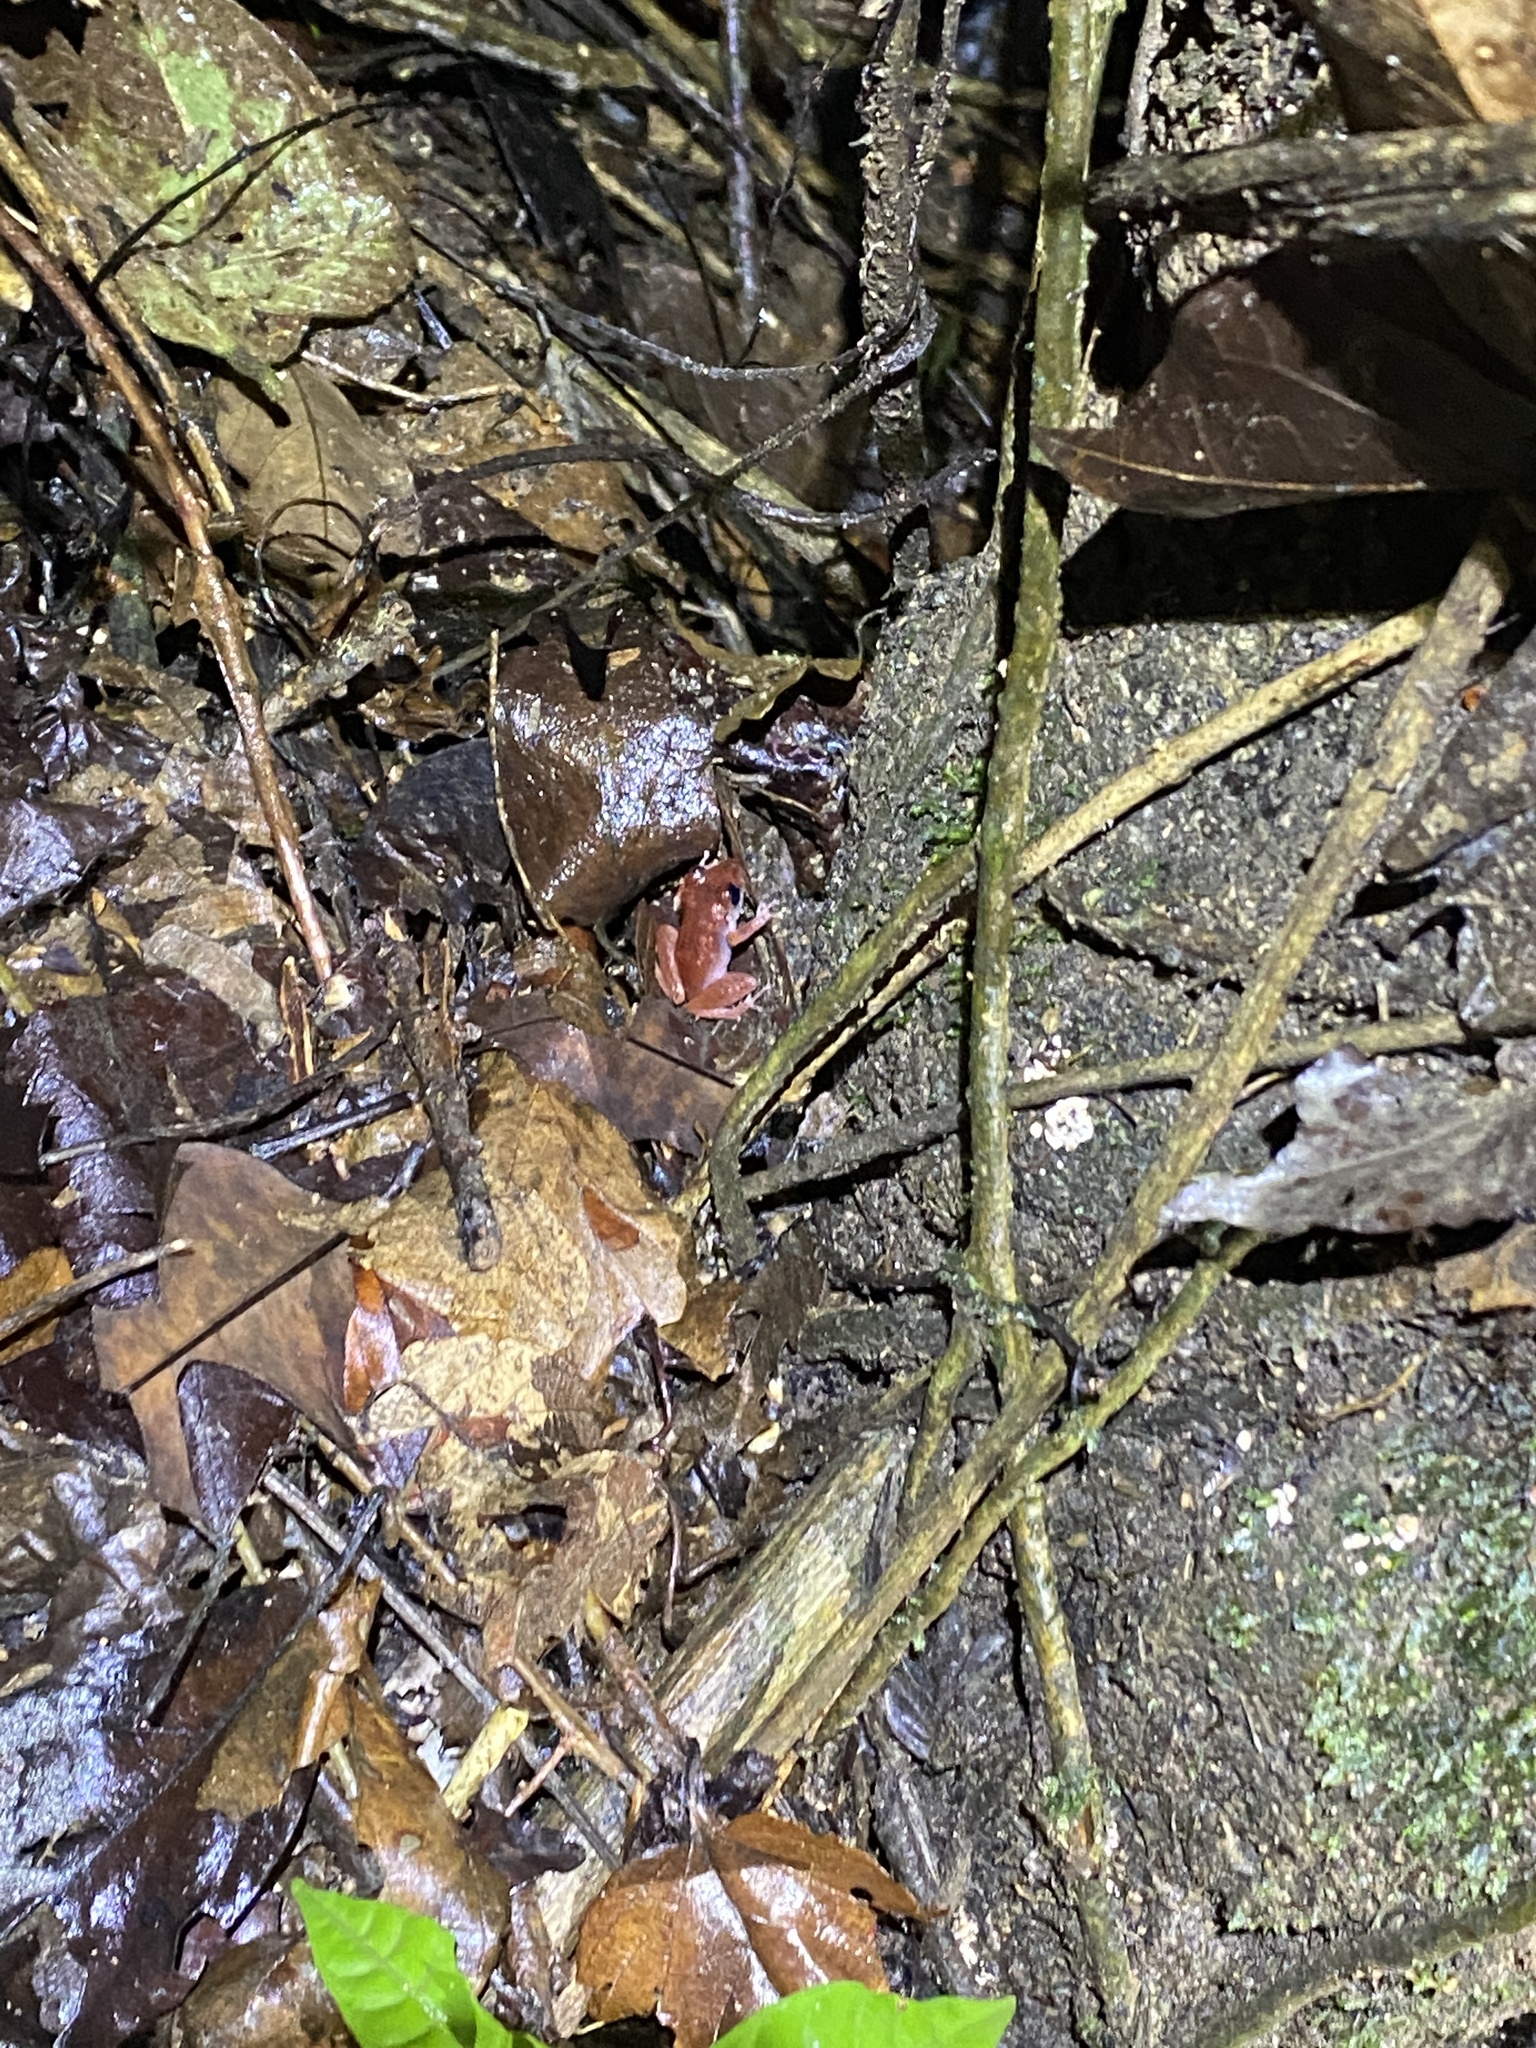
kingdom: Animalia
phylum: Chordata
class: Amphibia
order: Anura
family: Craugastoridae
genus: Pristimantis
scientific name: Pristimantis urichi
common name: Lesser antilles robber frog
